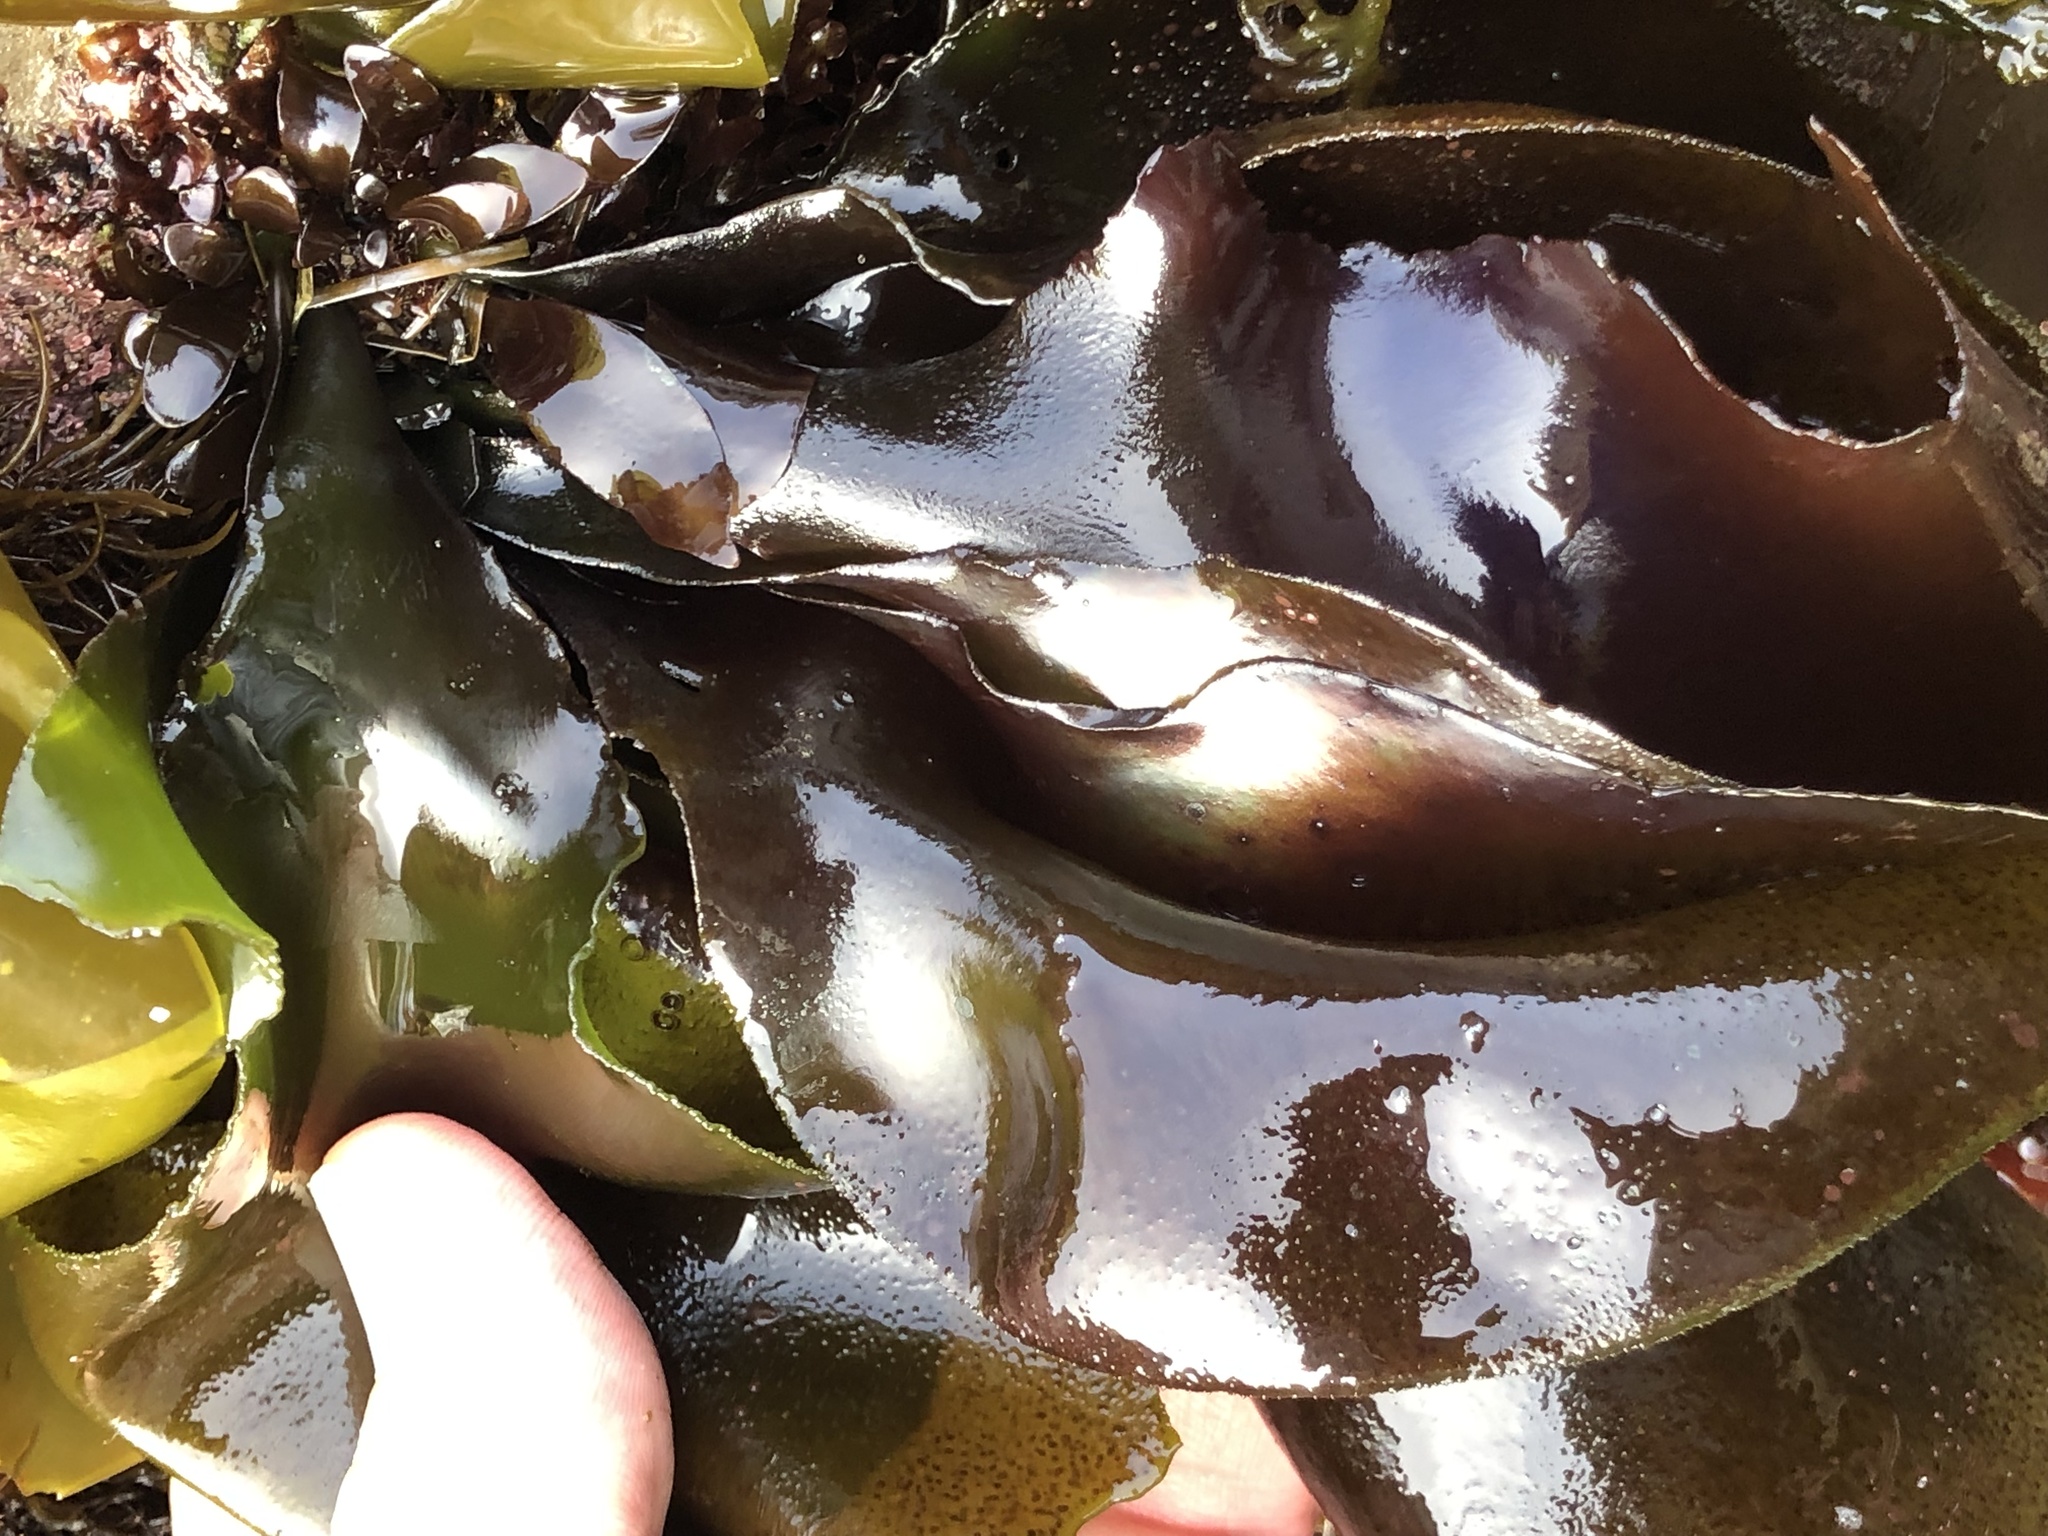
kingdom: Plantae
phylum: Rhodophyta
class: Florideophyceae
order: Gigartinales
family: Gigartinaceae
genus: Mazzaella
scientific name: Mazzaella splendens
